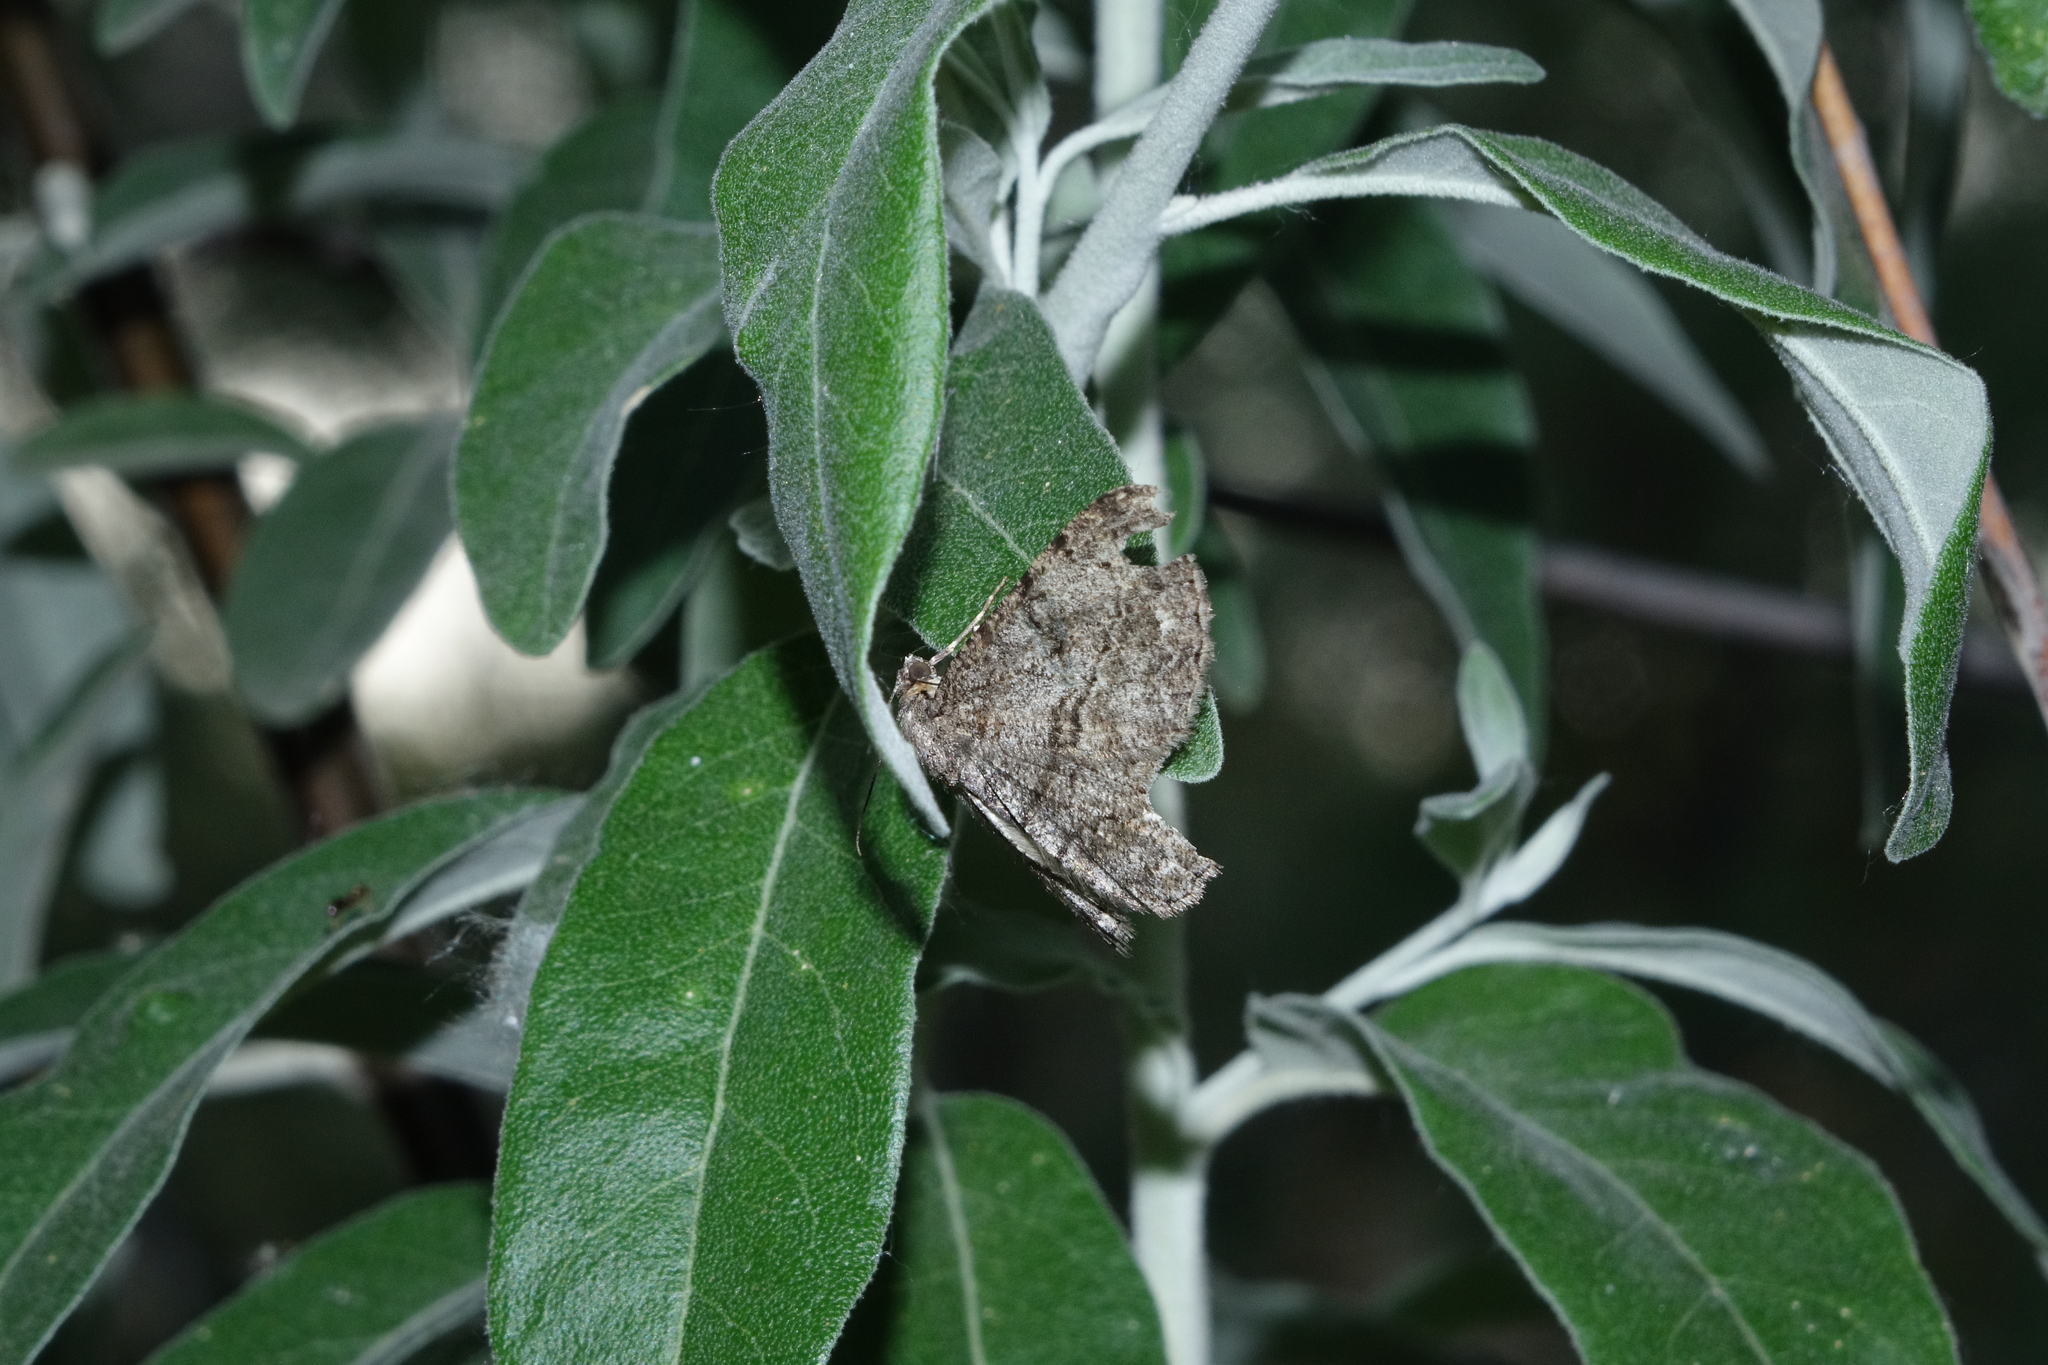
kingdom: Plantae
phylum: Tracheophyta
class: Magnoliopsida
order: Rosales
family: Elaeagnaceae
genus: Elaeagnus
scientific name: Elaeagnus angustifolia
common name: Russian olive
